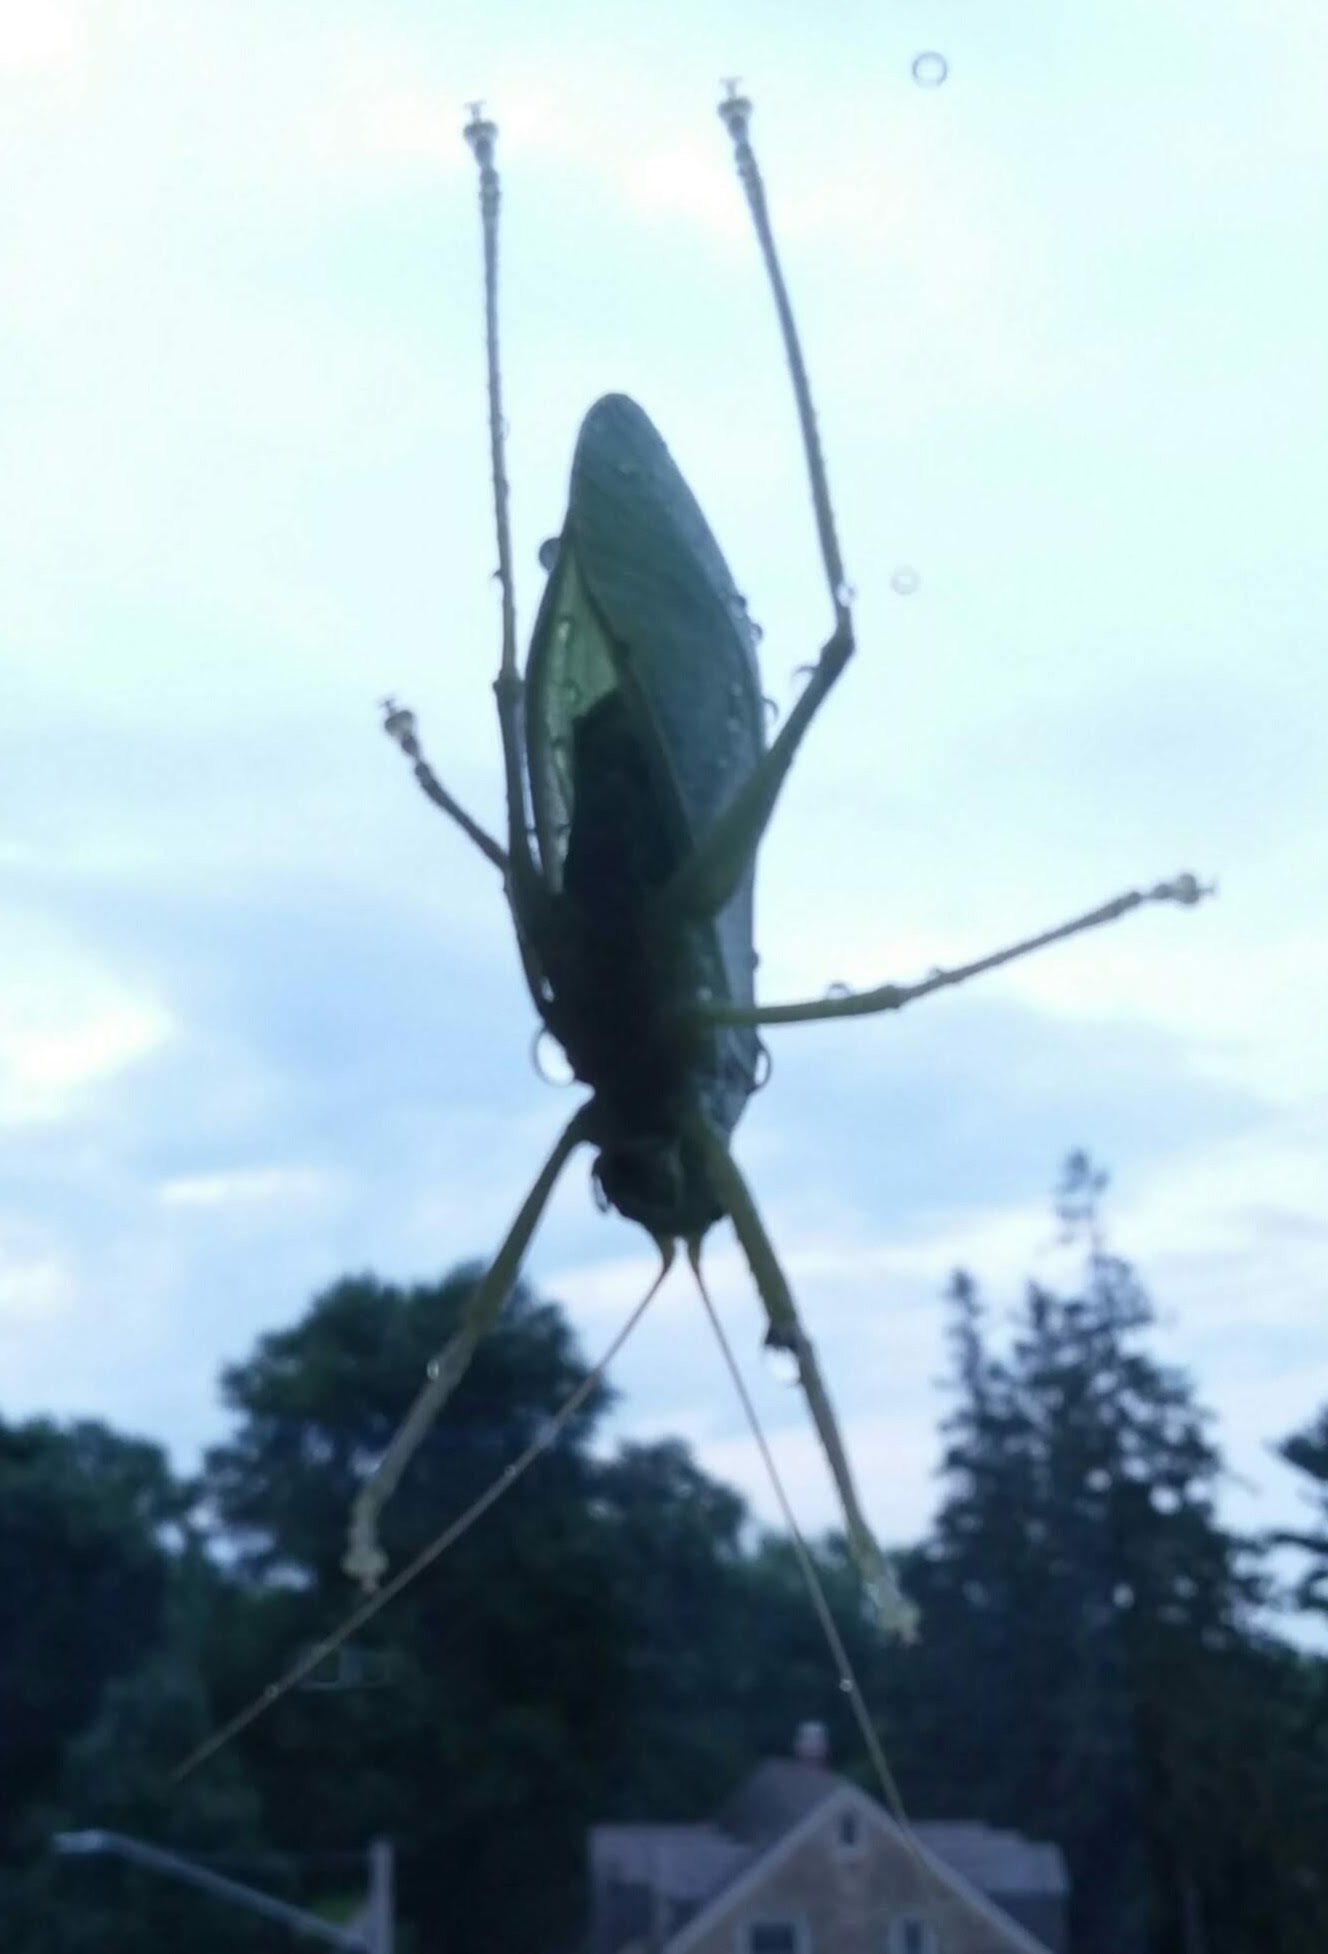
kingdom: Animalia
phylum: Arthropoda
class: Insecta
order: Orthoptera
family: Tettigoniidae
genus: Pterophylla
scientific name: Pterophylla camellifolia
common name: Common true katydid
